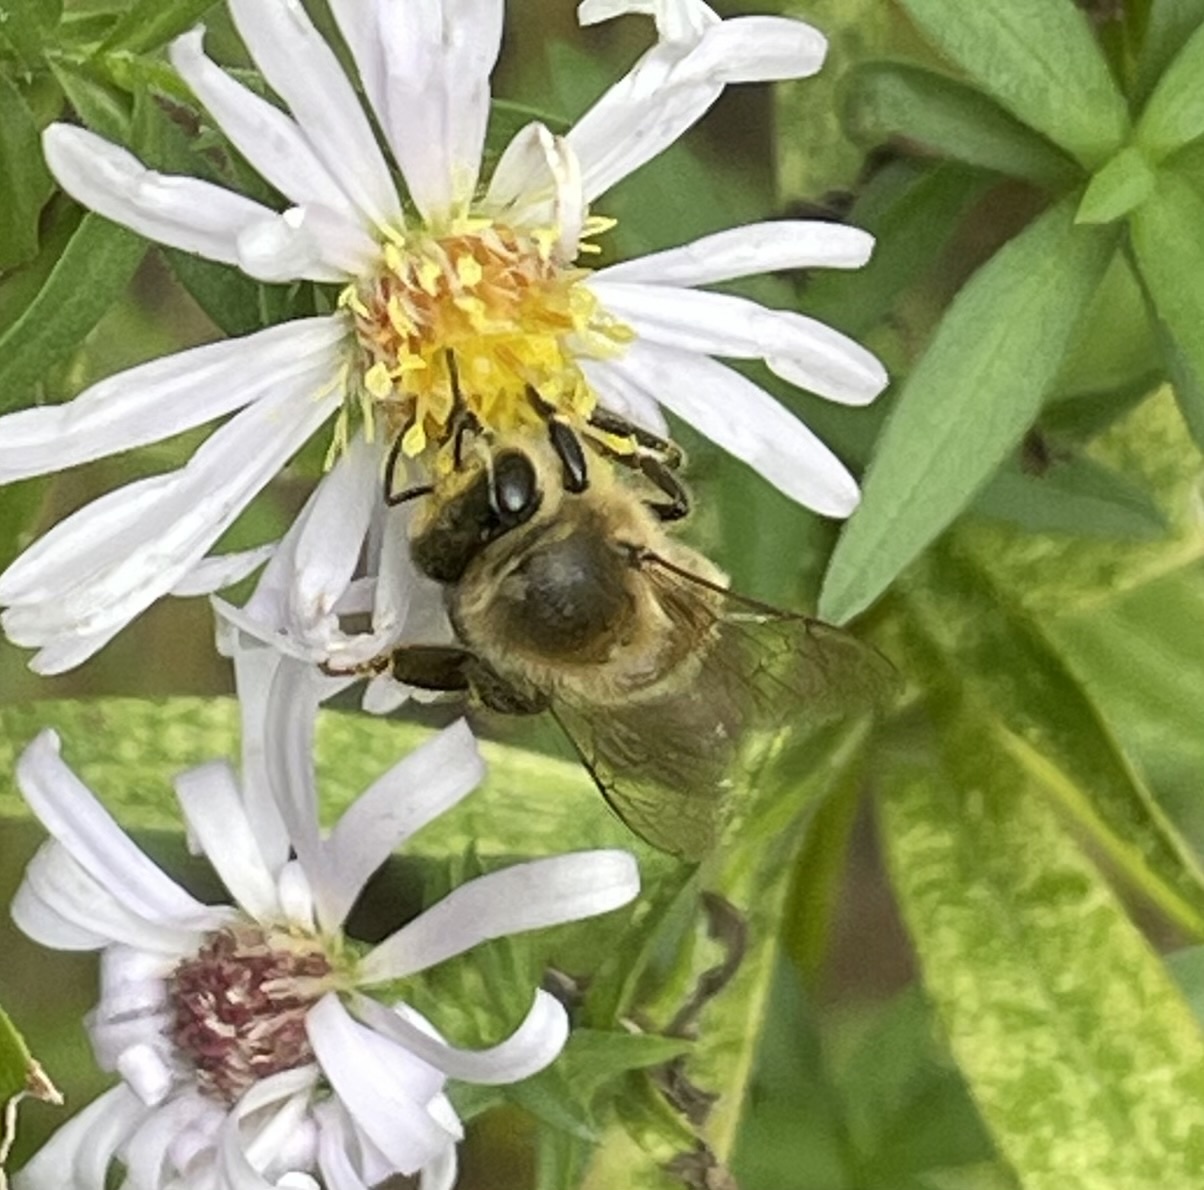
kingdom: Animalia
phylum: Arthropoda
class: Insecta
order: Hymenoptera
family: Apidae
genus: Apis
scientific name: Apis mellifera
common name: Honey bee
